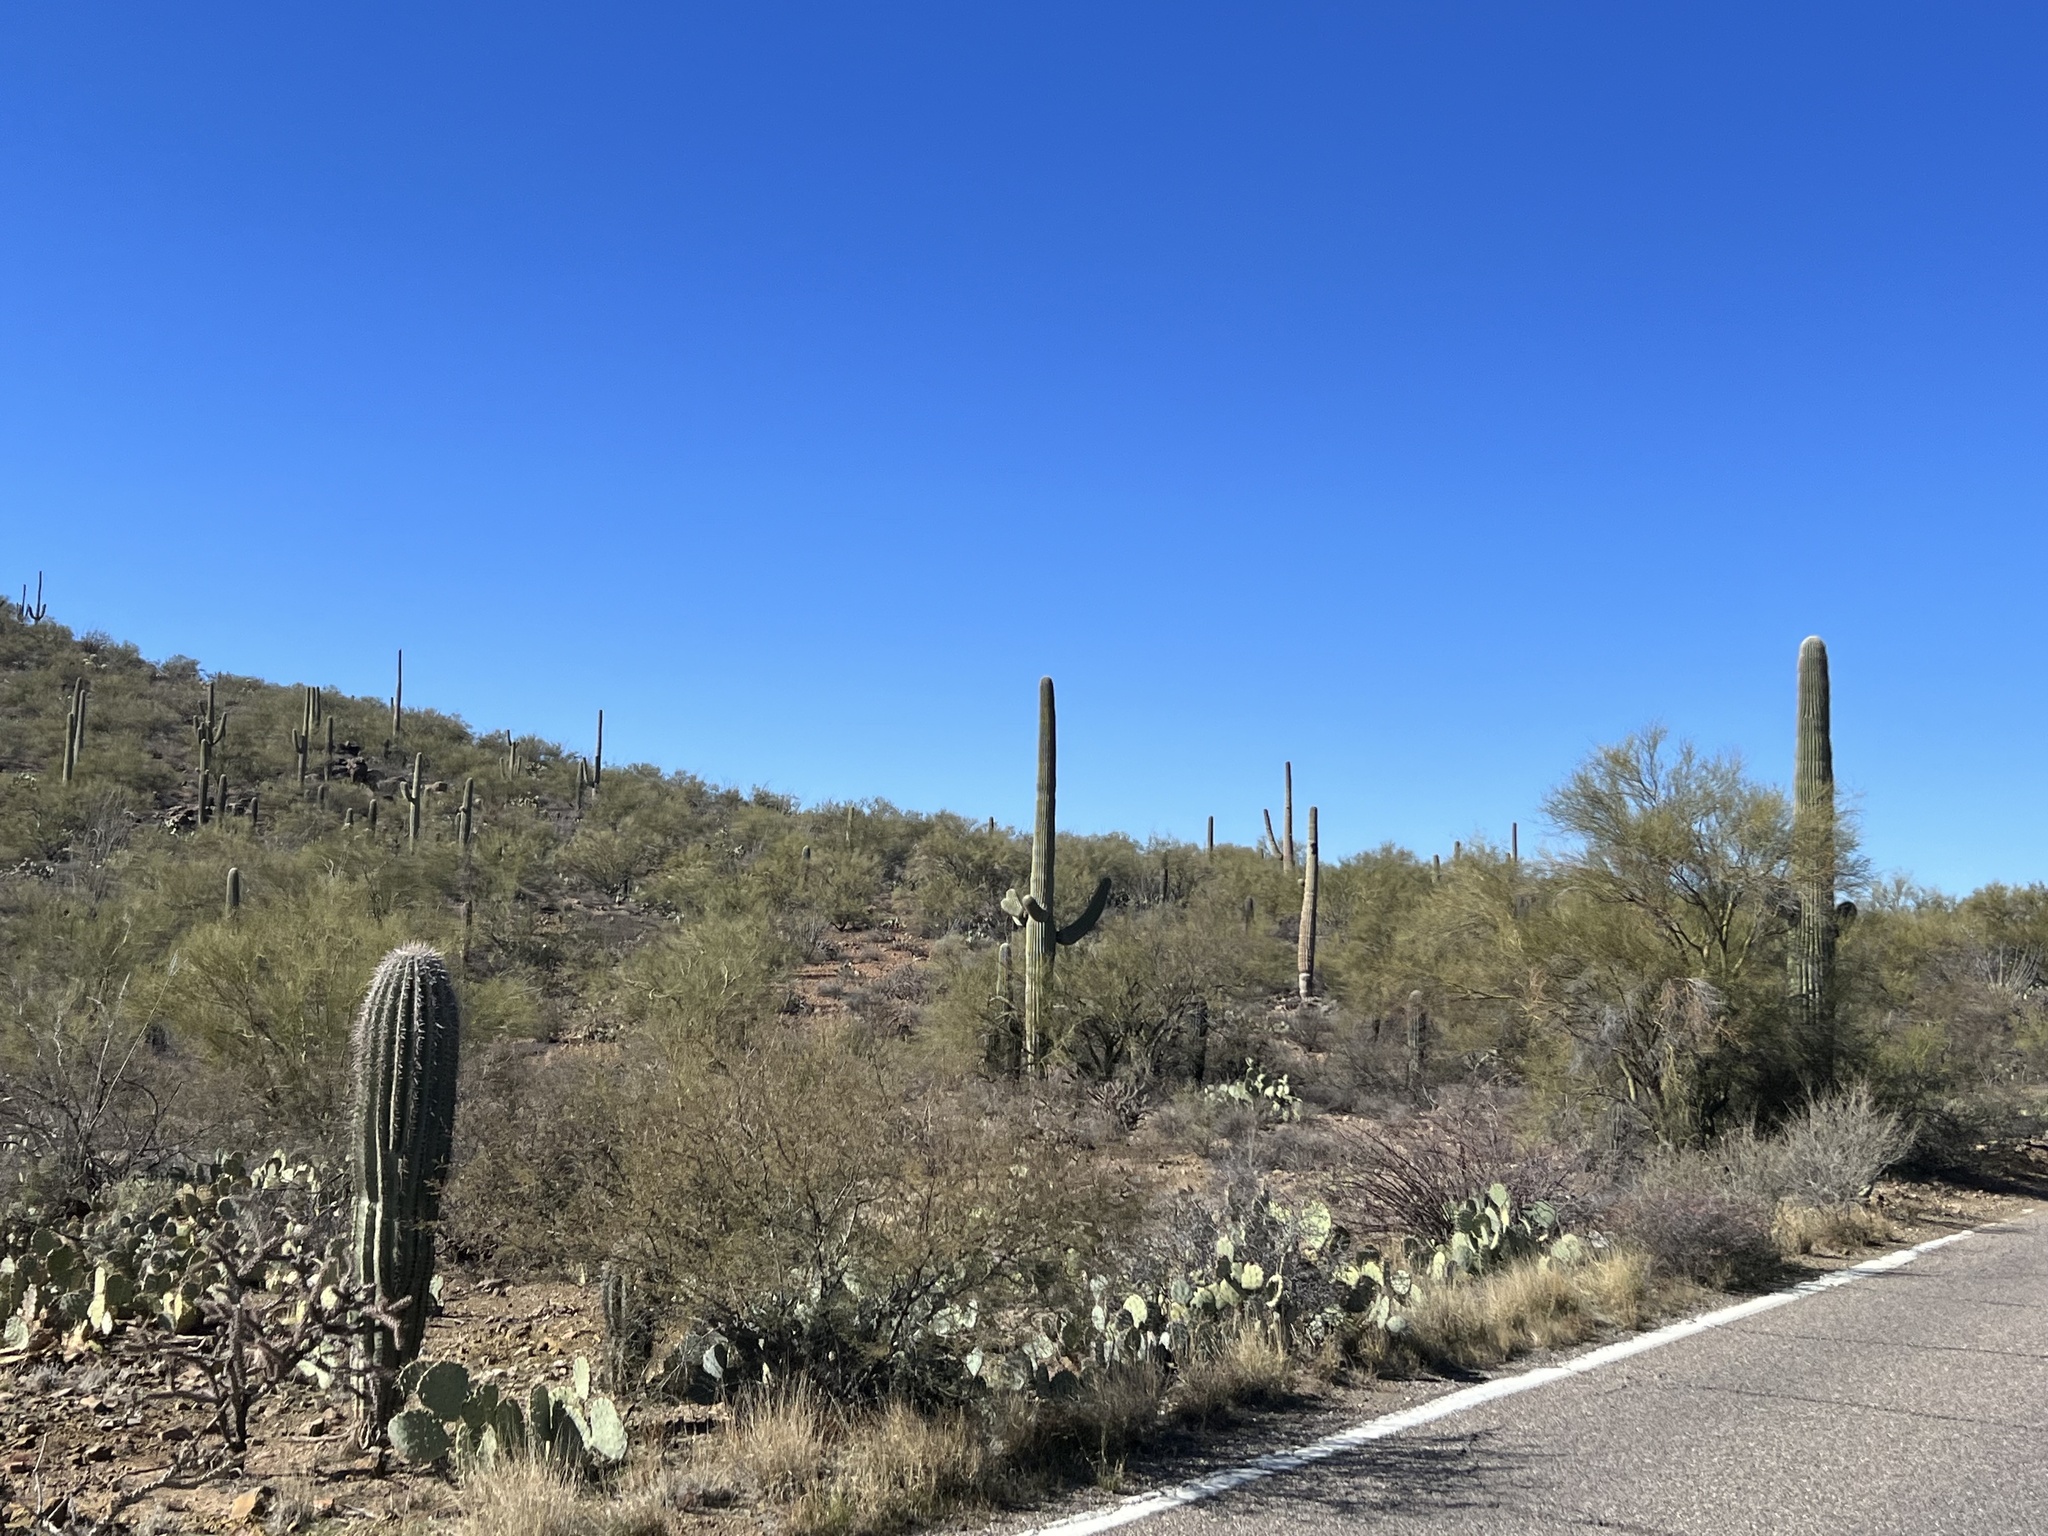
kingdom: Plantae
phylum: Tracheophyta
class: Magnoliopsida
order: Caryophyllales
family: Cactaceae
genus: Carnegiea
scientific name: Carnegiea gigantea
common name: Saguaro
